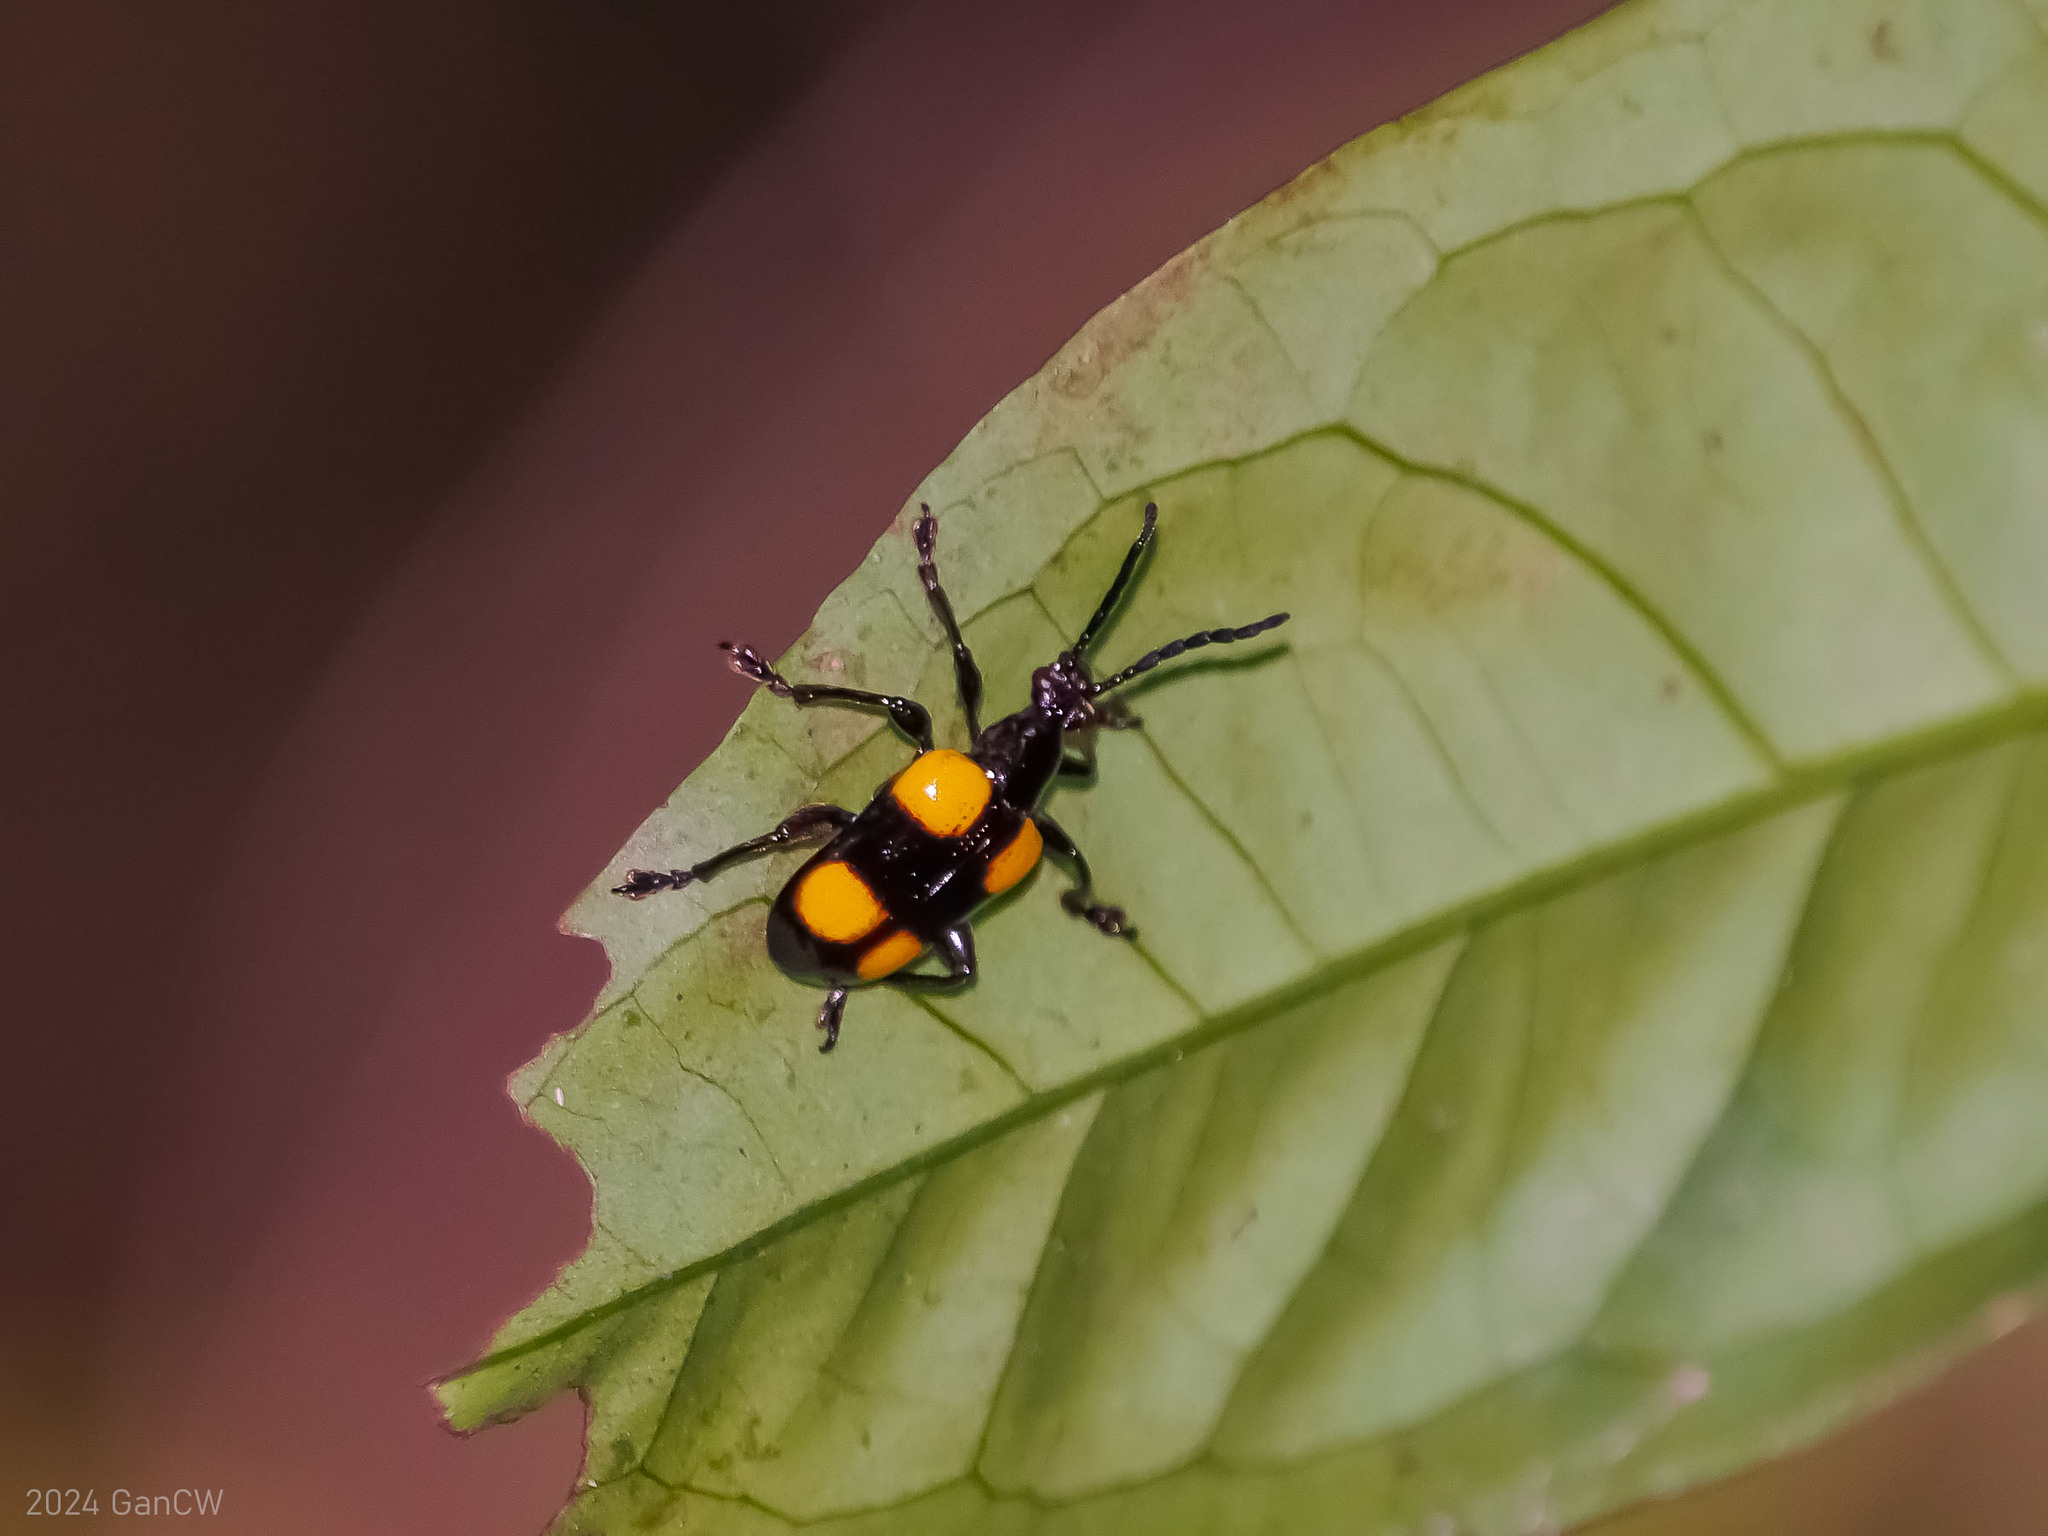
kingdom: Animalia
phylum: Arthropoda
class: Insecta
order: Coleoptera
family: Chrysomelidae
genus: Lilioceris
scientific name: Lilioceris
